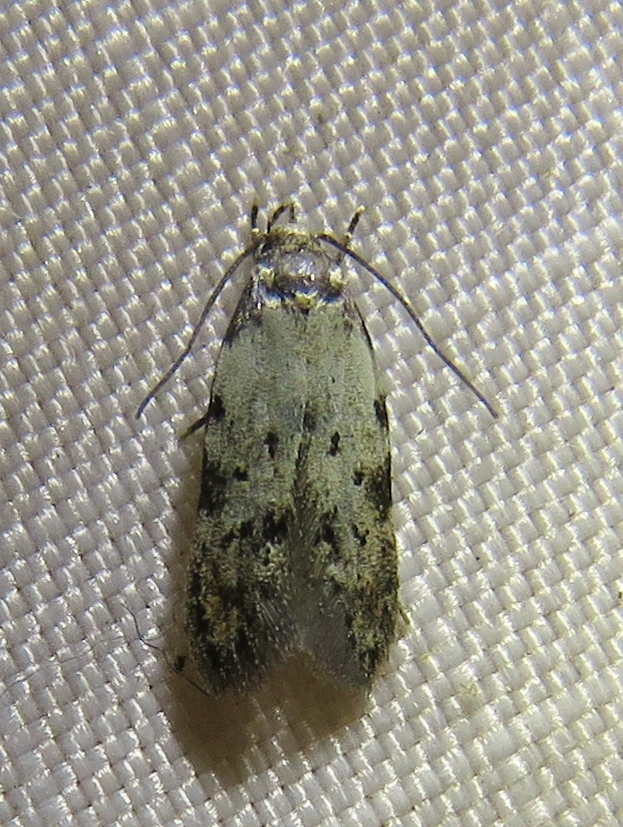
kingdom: Animalia
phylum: Arthropoda
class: Insecta
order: Lepidoptera
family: Autostichidae
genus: Taygete
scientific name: Taygete attributella
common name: Triangle-marked twirler moth
